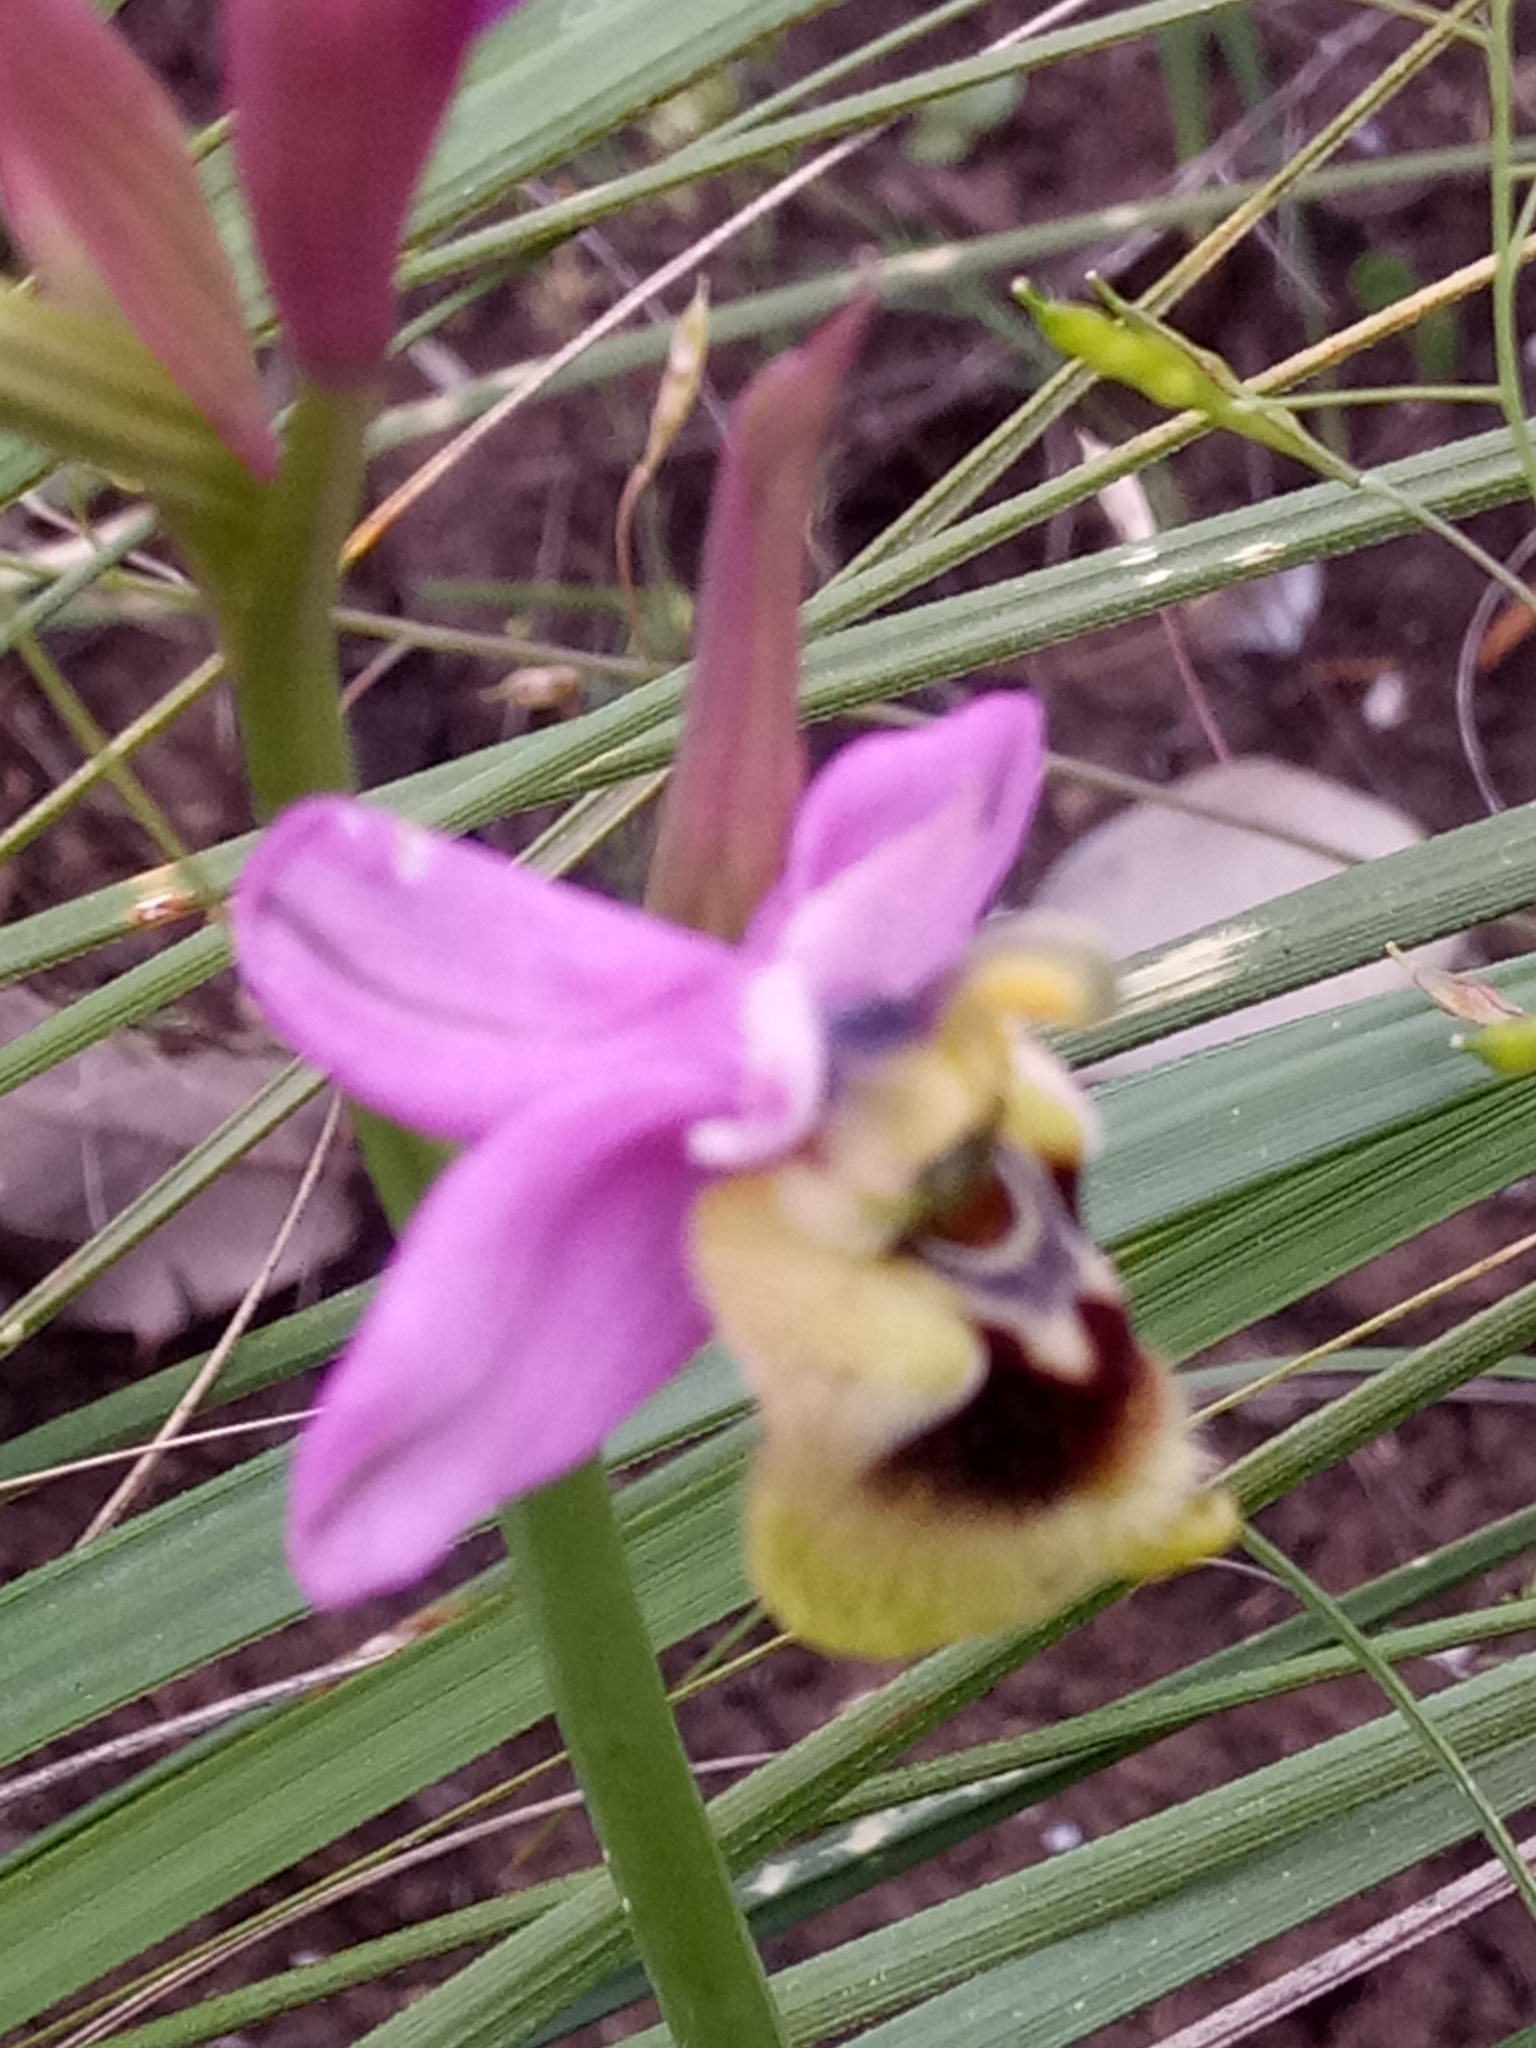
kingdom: Plantae
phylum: Tracheophyta
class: Liliopsida
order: Asparagales
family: Orchidaceae
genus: Ophrys
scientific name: Ophrys tenthredinifera
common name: Sawfly orchid
